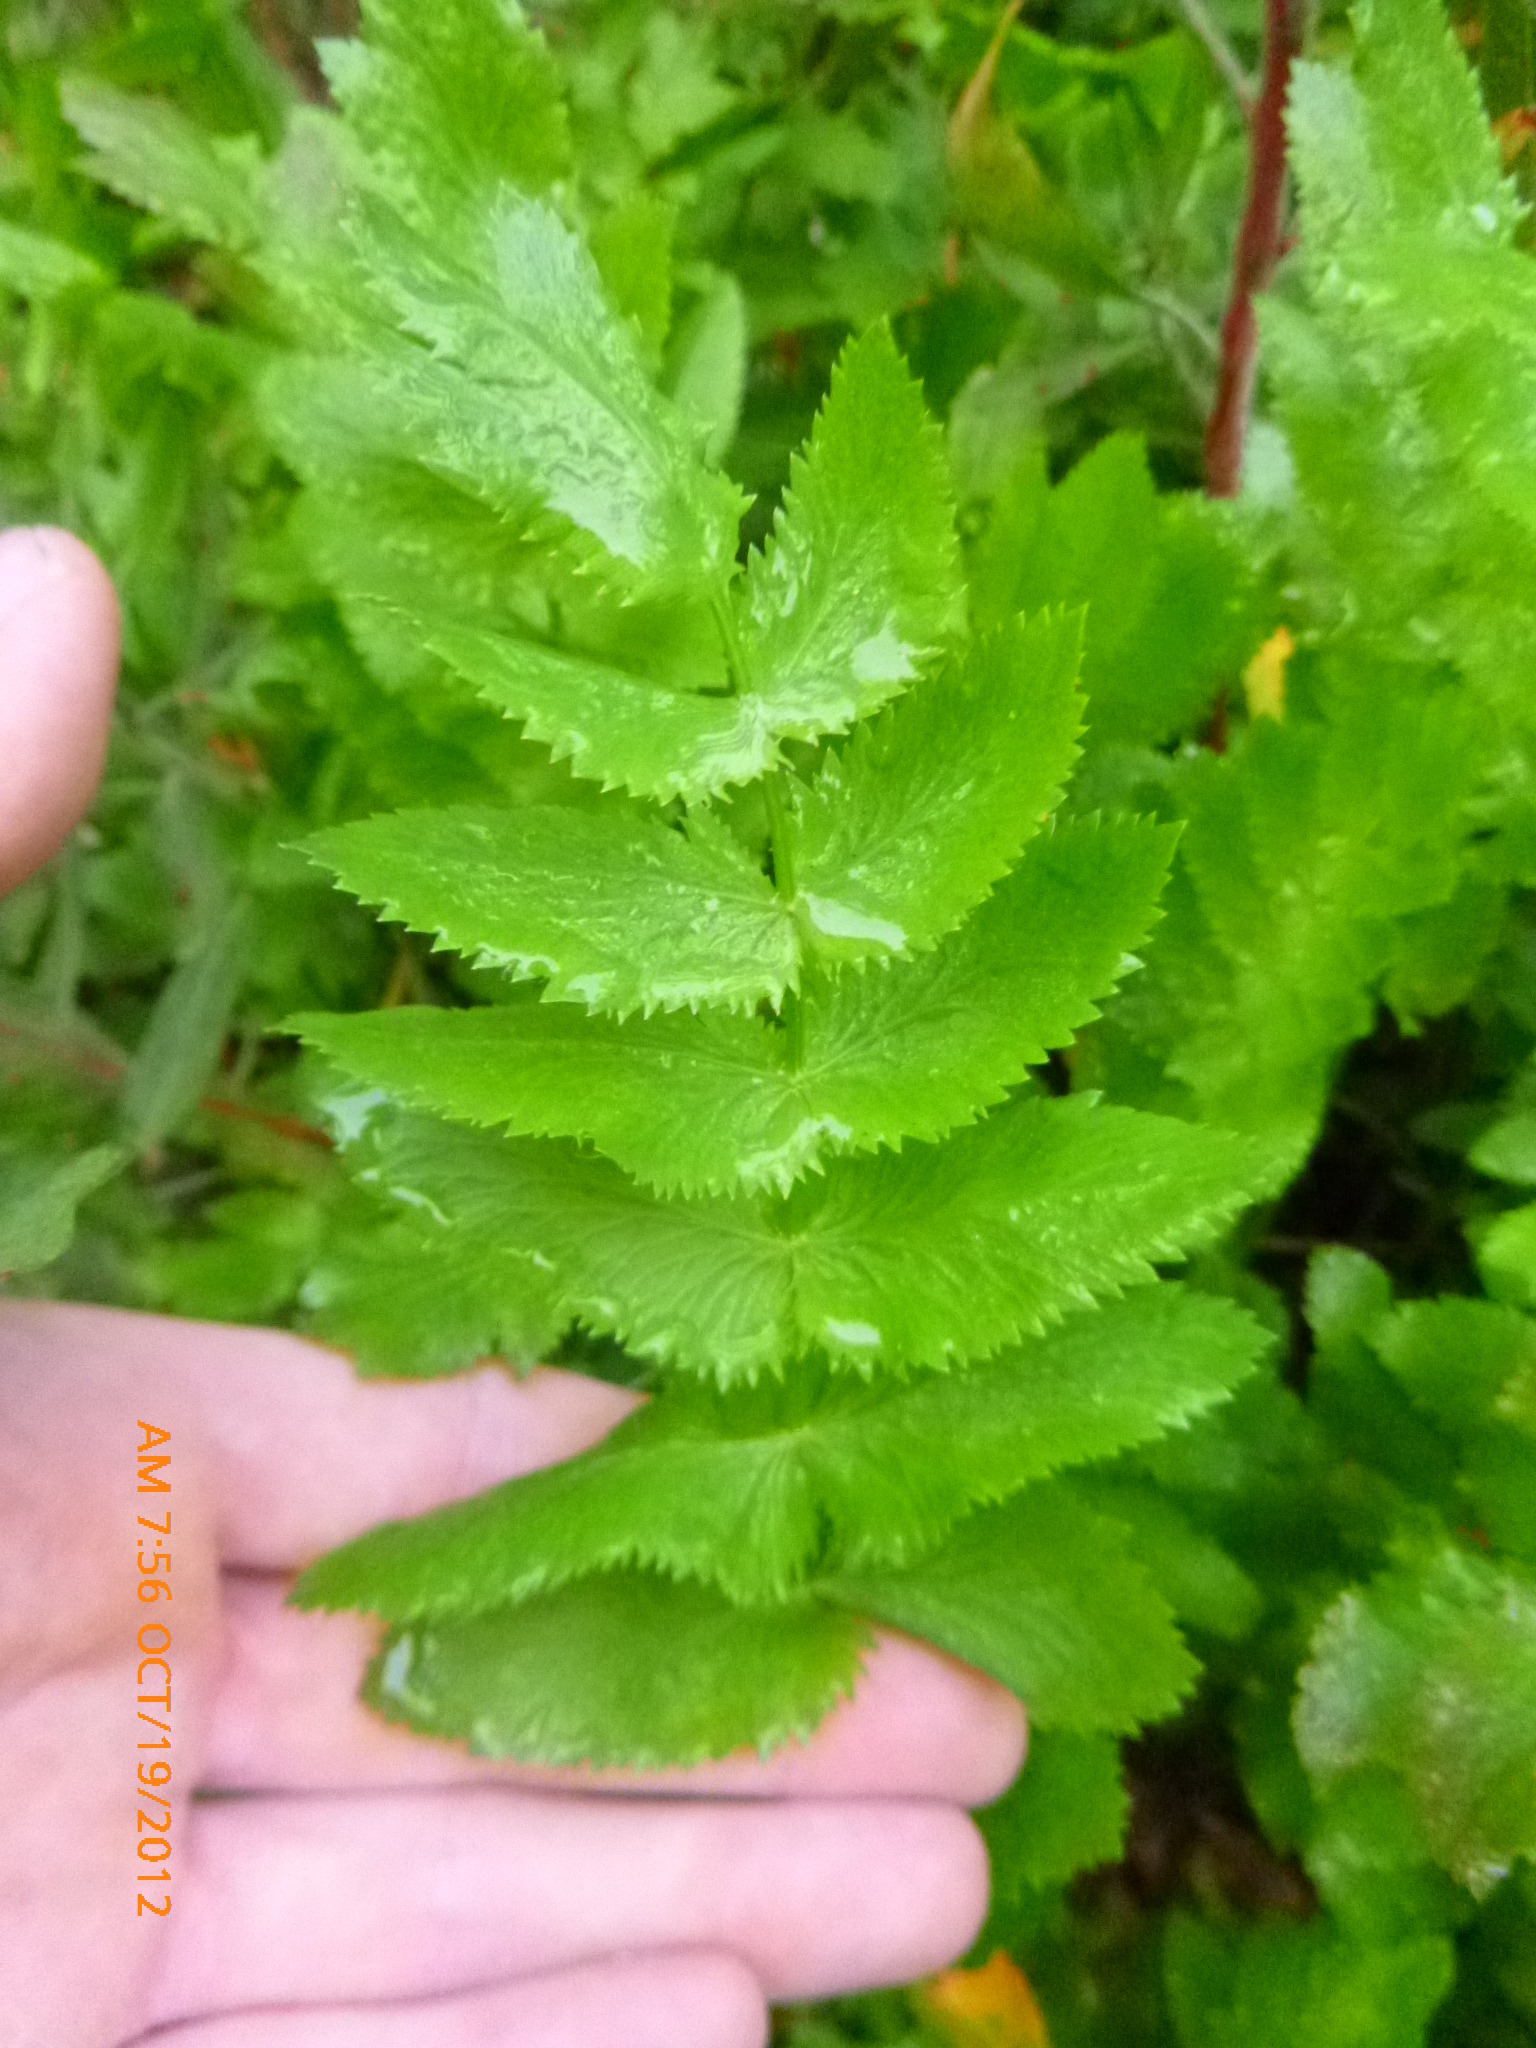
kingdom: Plantae
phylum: Tracheophyta
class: Magnoliopsida
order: Apiales
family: Apiaceae
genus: Berula
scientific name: Berula erecta
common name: Lesser water-parsnip
